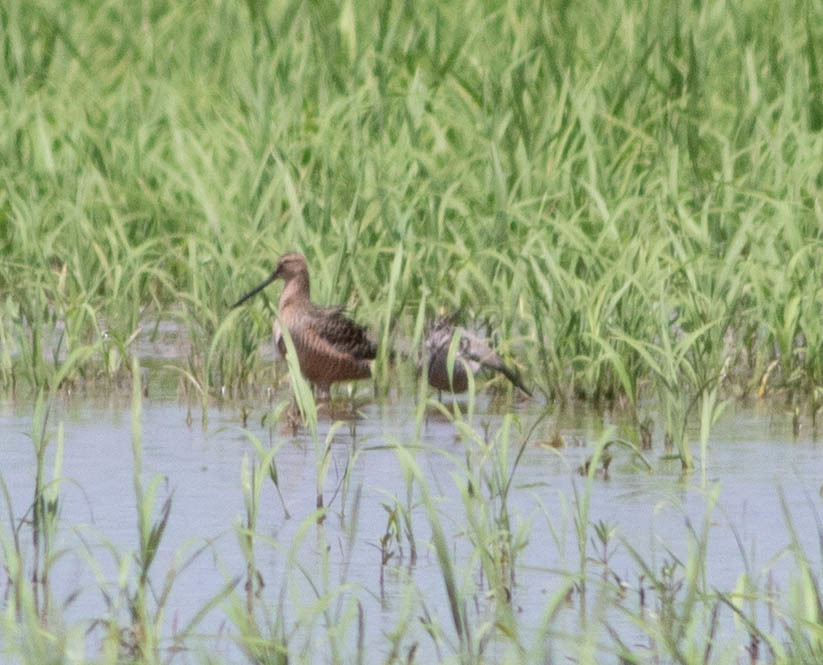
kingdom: Animalia
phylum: Chordata
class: Aves
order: Charadriiformes
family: Scolopacidae
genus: Limnodromus
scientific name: Limnodromus scolopaceus
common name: Long-billed dowitcher
